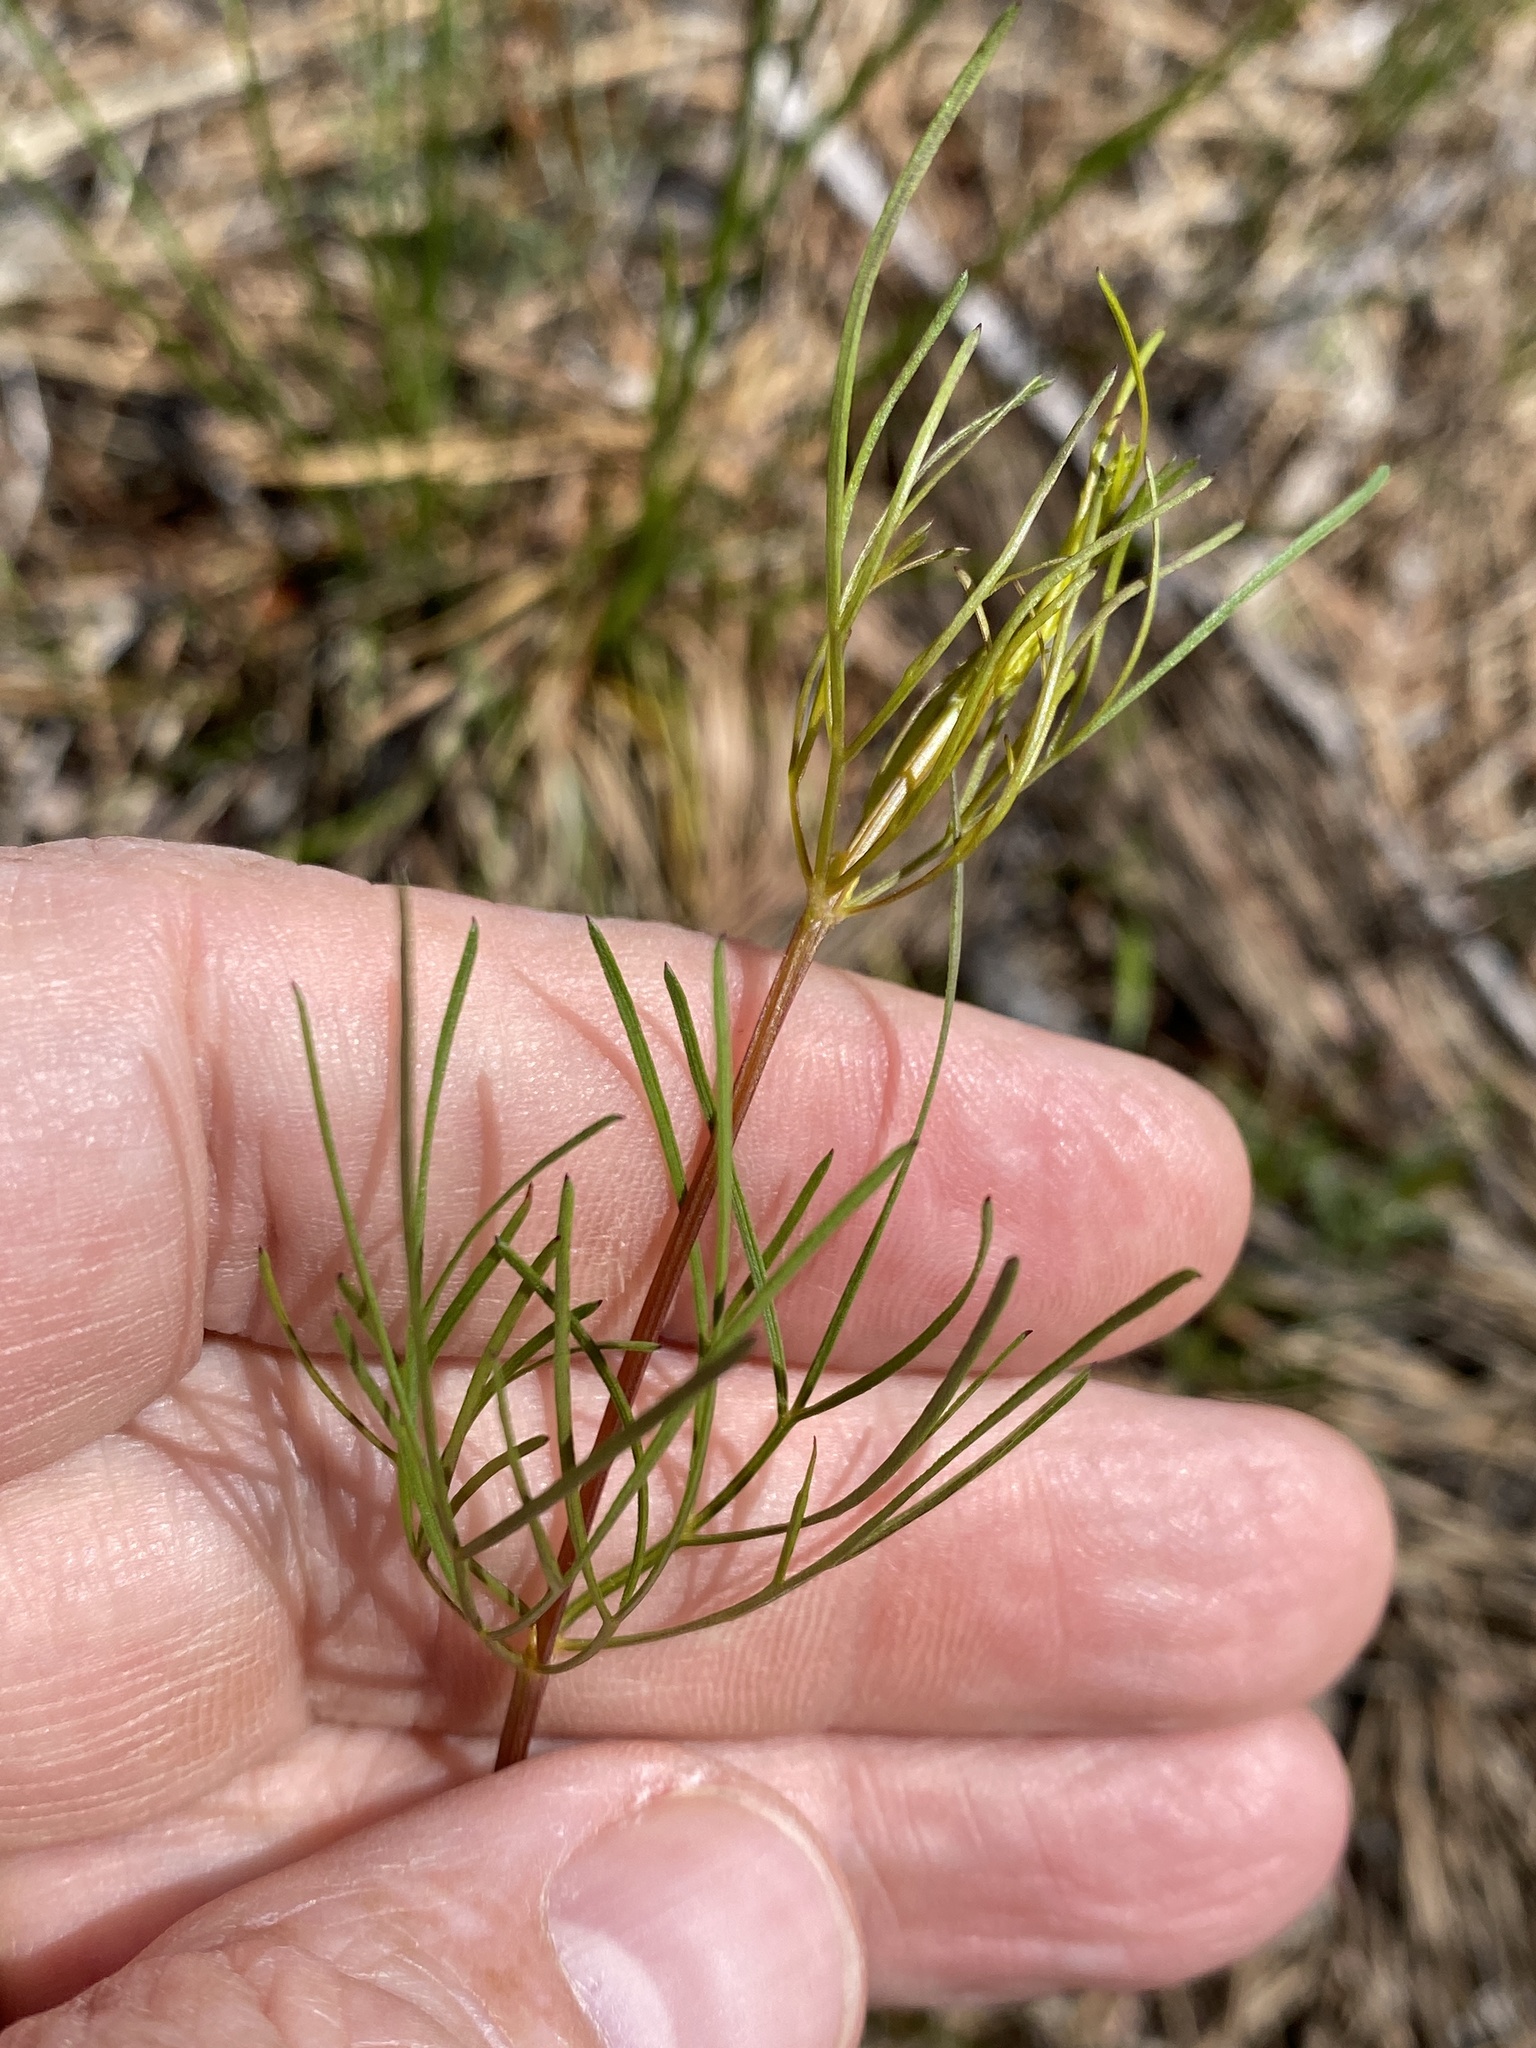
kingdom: Plantae
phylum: Tracheophyta
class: Magnoliopsida
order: Asterales
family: Asteraceae
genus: Coreopsis
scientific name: Coreopsis verticillata
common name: Whorled tickseed
